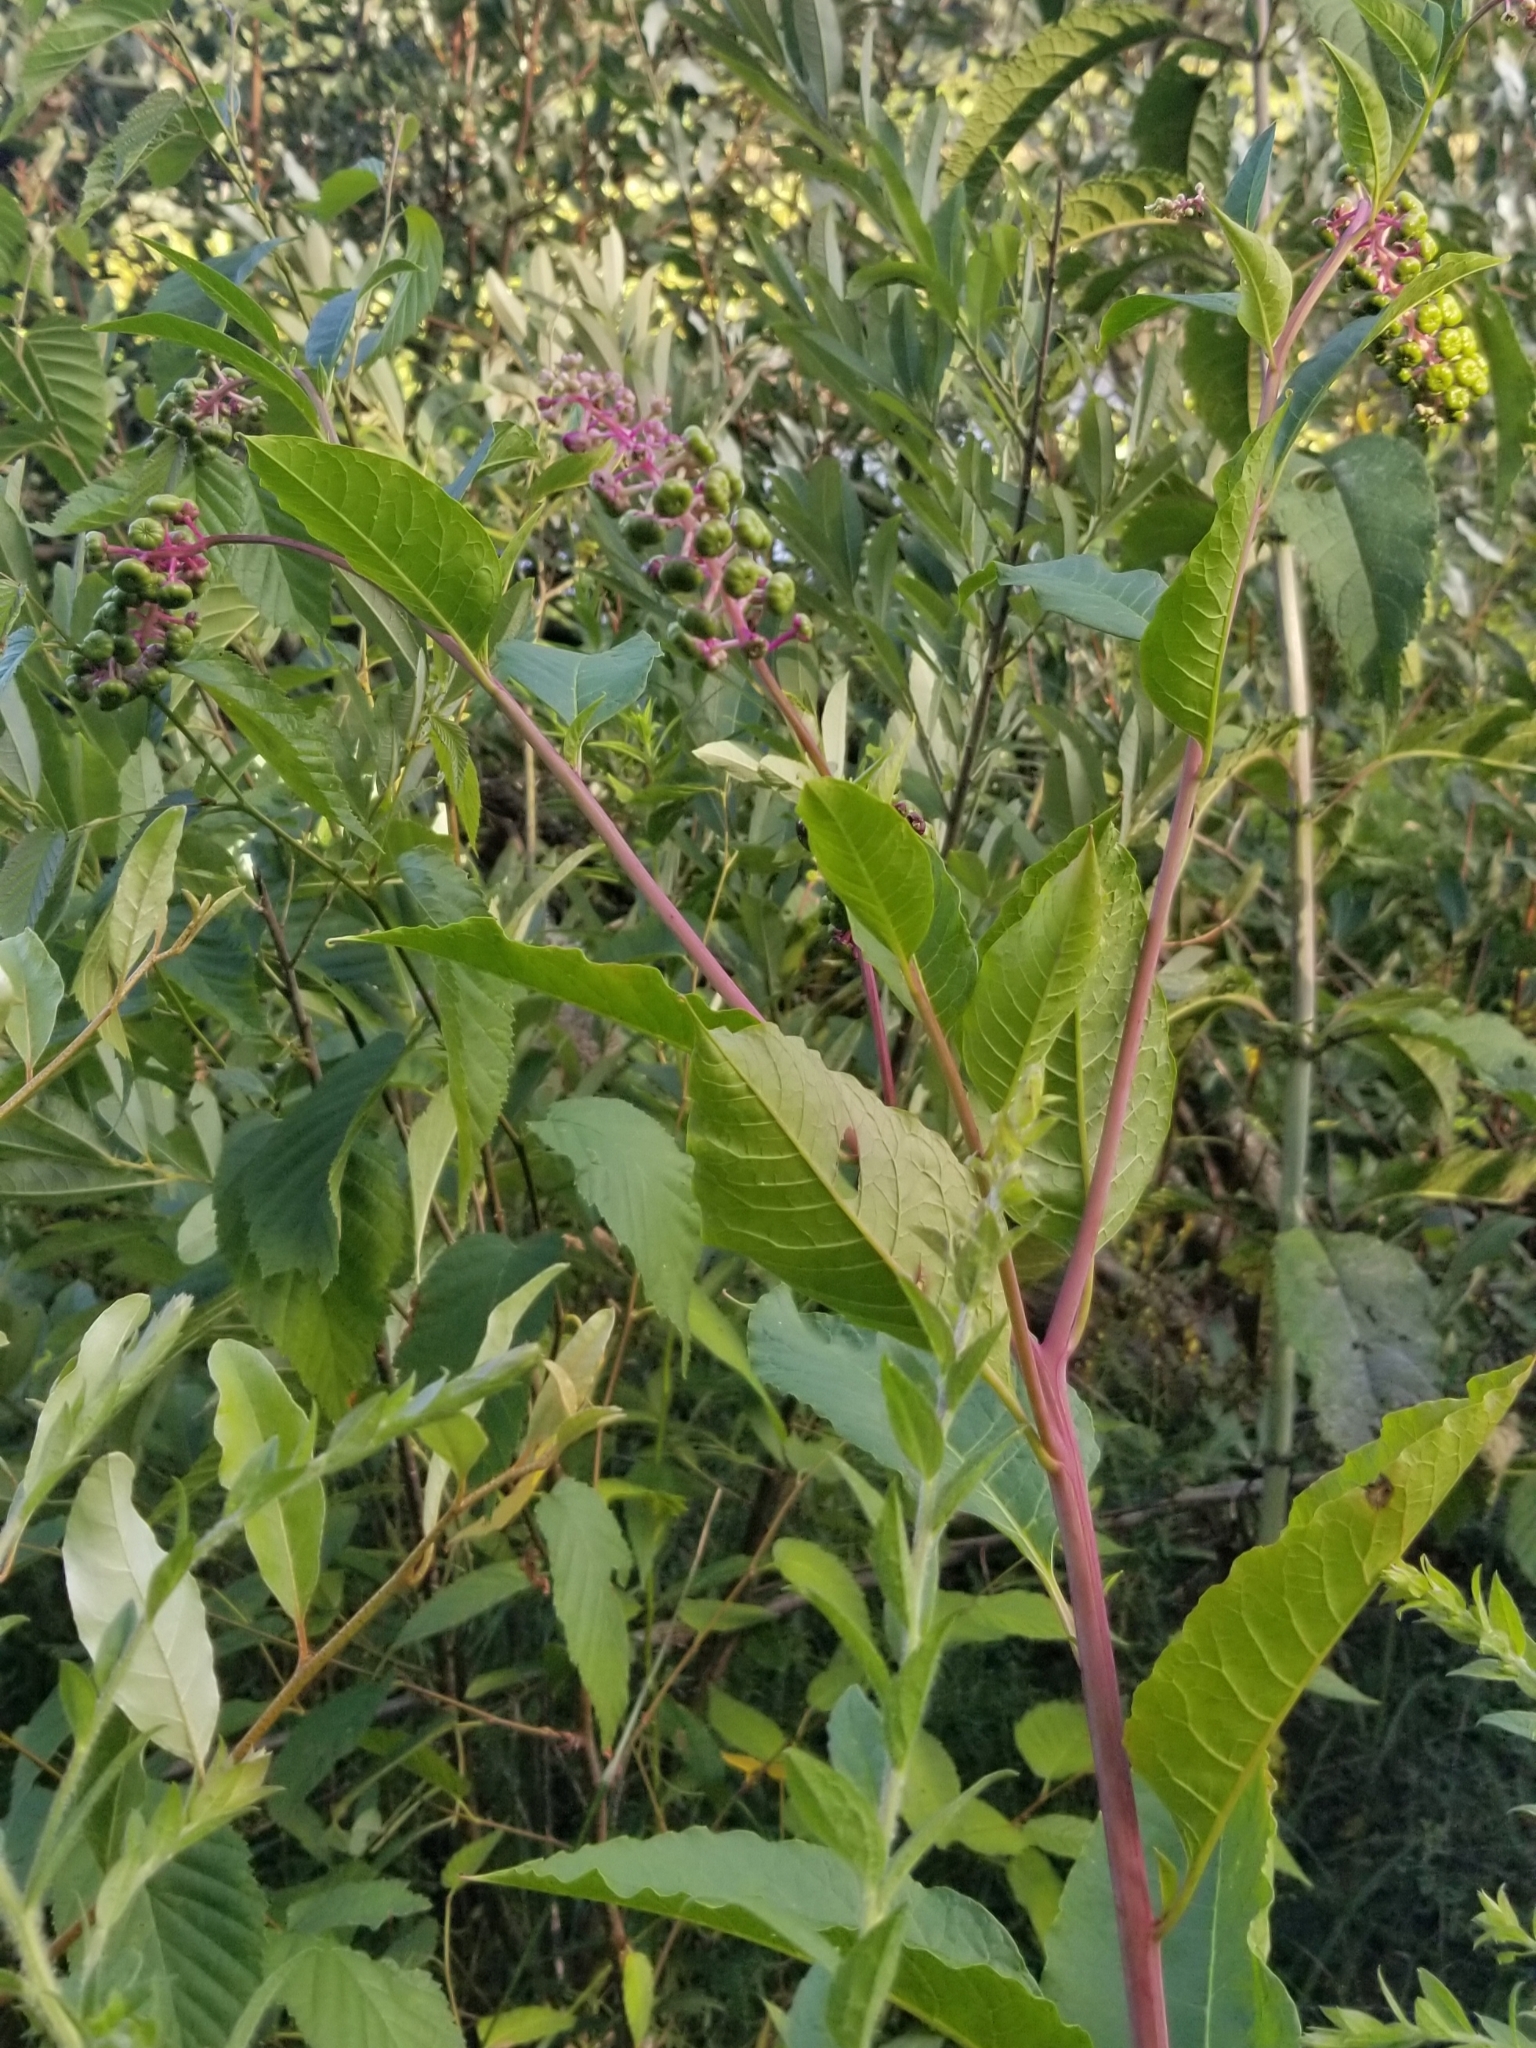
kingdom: Plantae
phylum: Tracheophyta
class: Magnoliopsida
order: Caryophyllales
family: Phytolaccaceae
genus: Phytolacca
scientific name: Phytolacca americana
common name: American pokeweed
